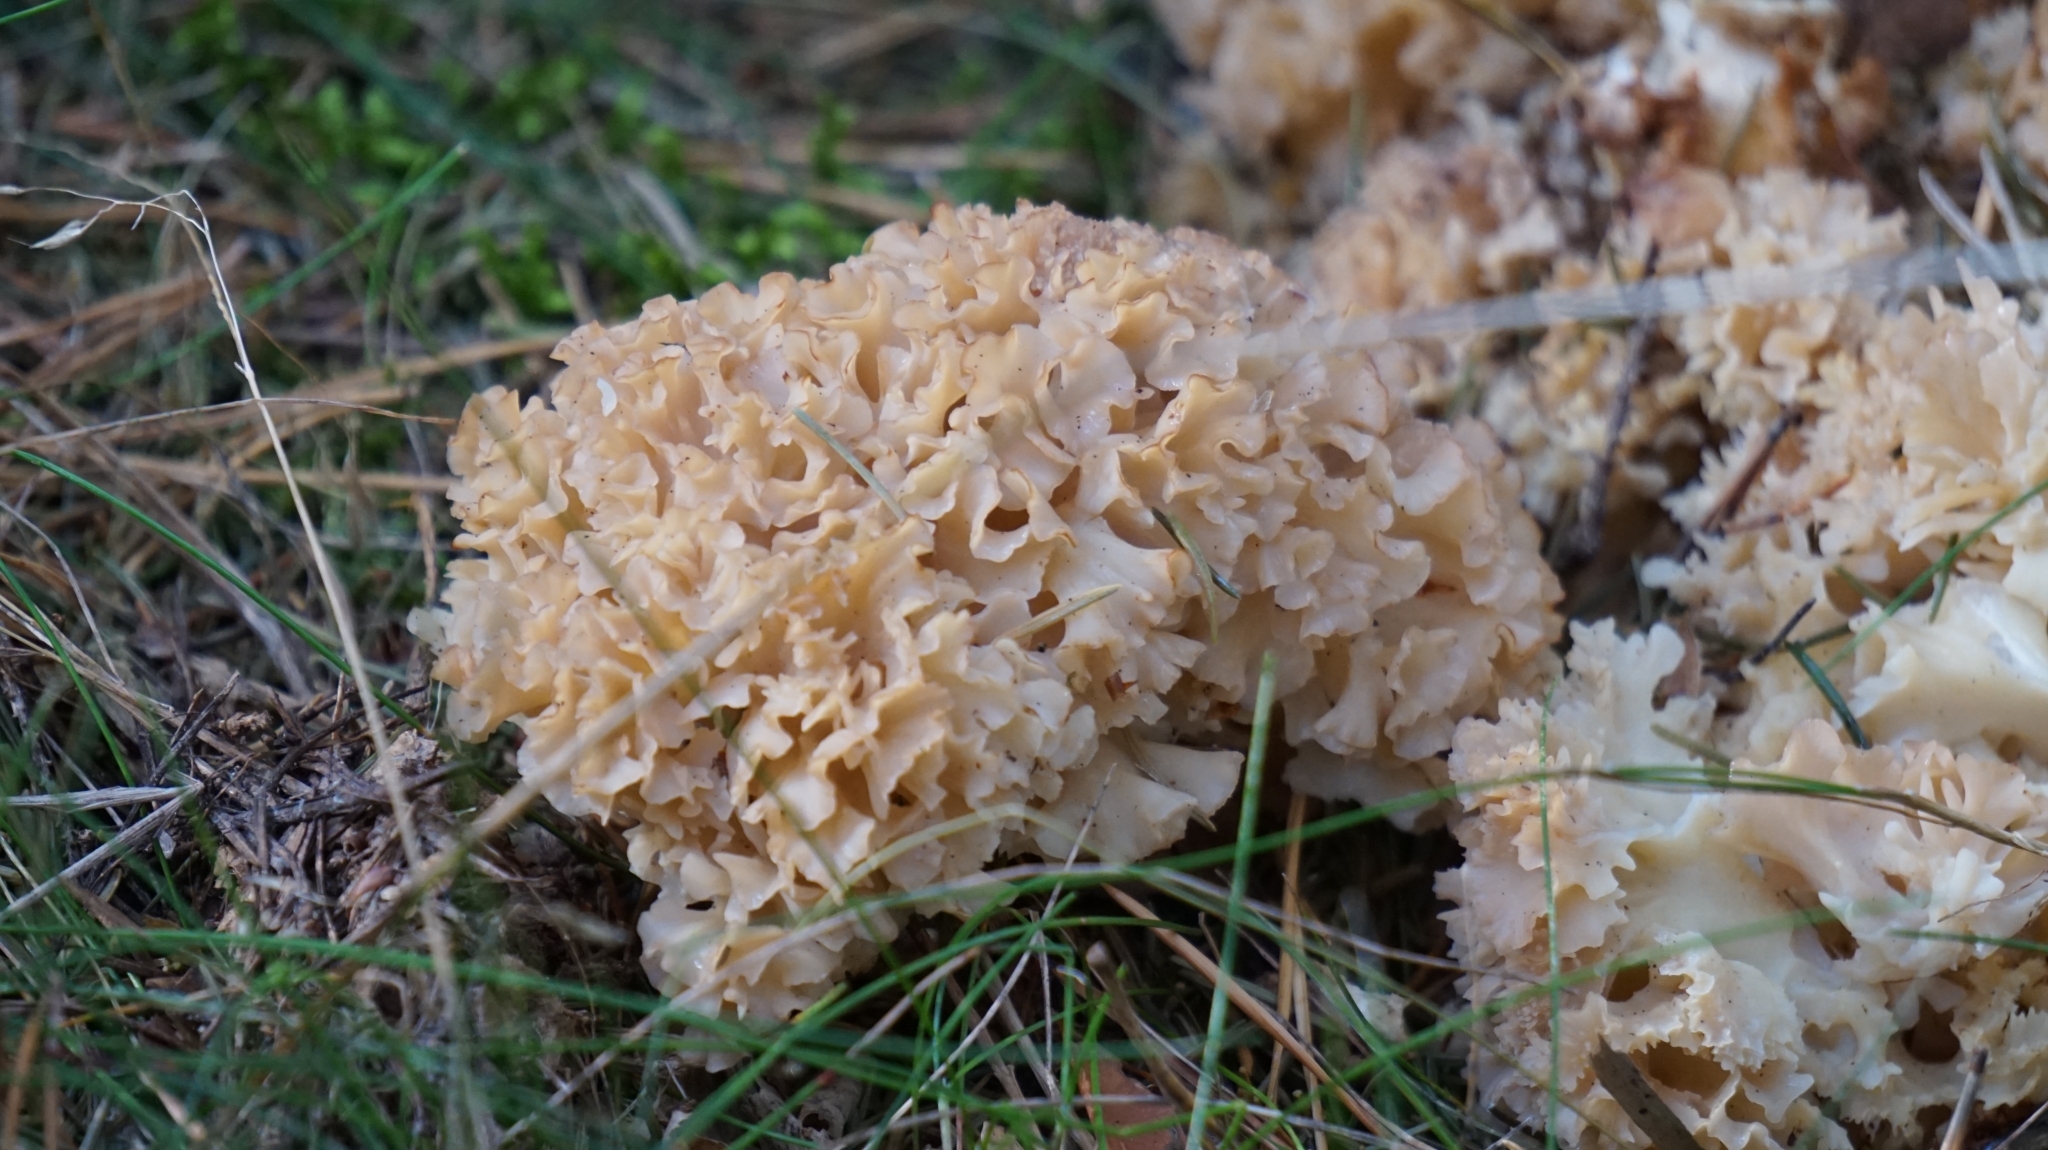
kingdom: Fungi
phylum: Basidiomycota
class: Agaricomycetes
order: Polyporales
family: Sparassidaceae
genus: Sparassis
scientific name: Sparassis crispa
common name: Brain fungus
